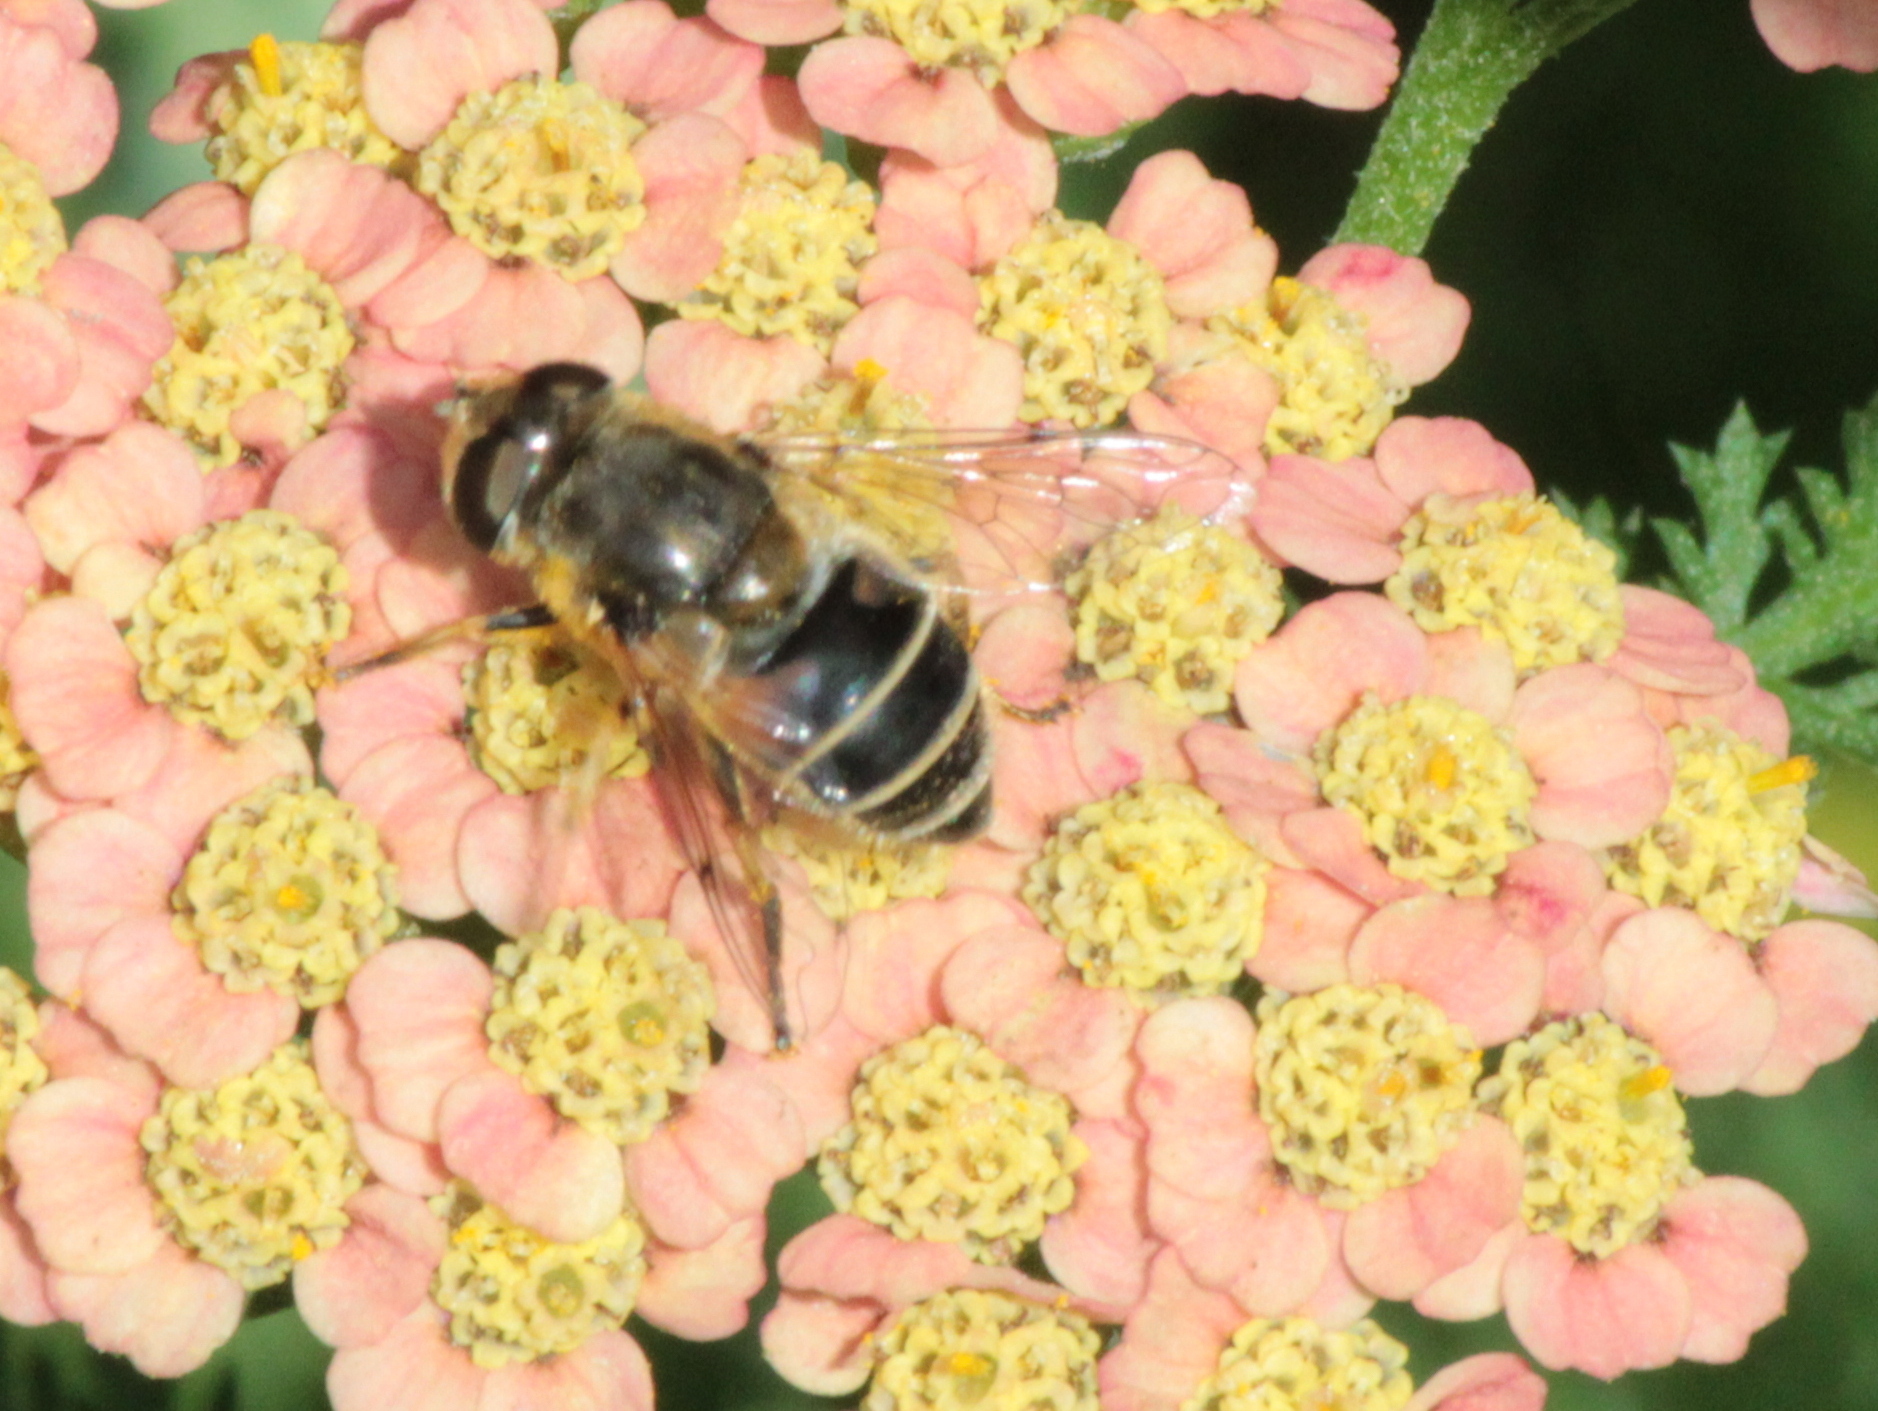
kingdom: Animalia
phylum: Arthropoda
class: Insecta
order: Diptera
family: Syrphidae
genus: Eristalis
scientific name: Eristalis arbustorum
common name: Hover fly
